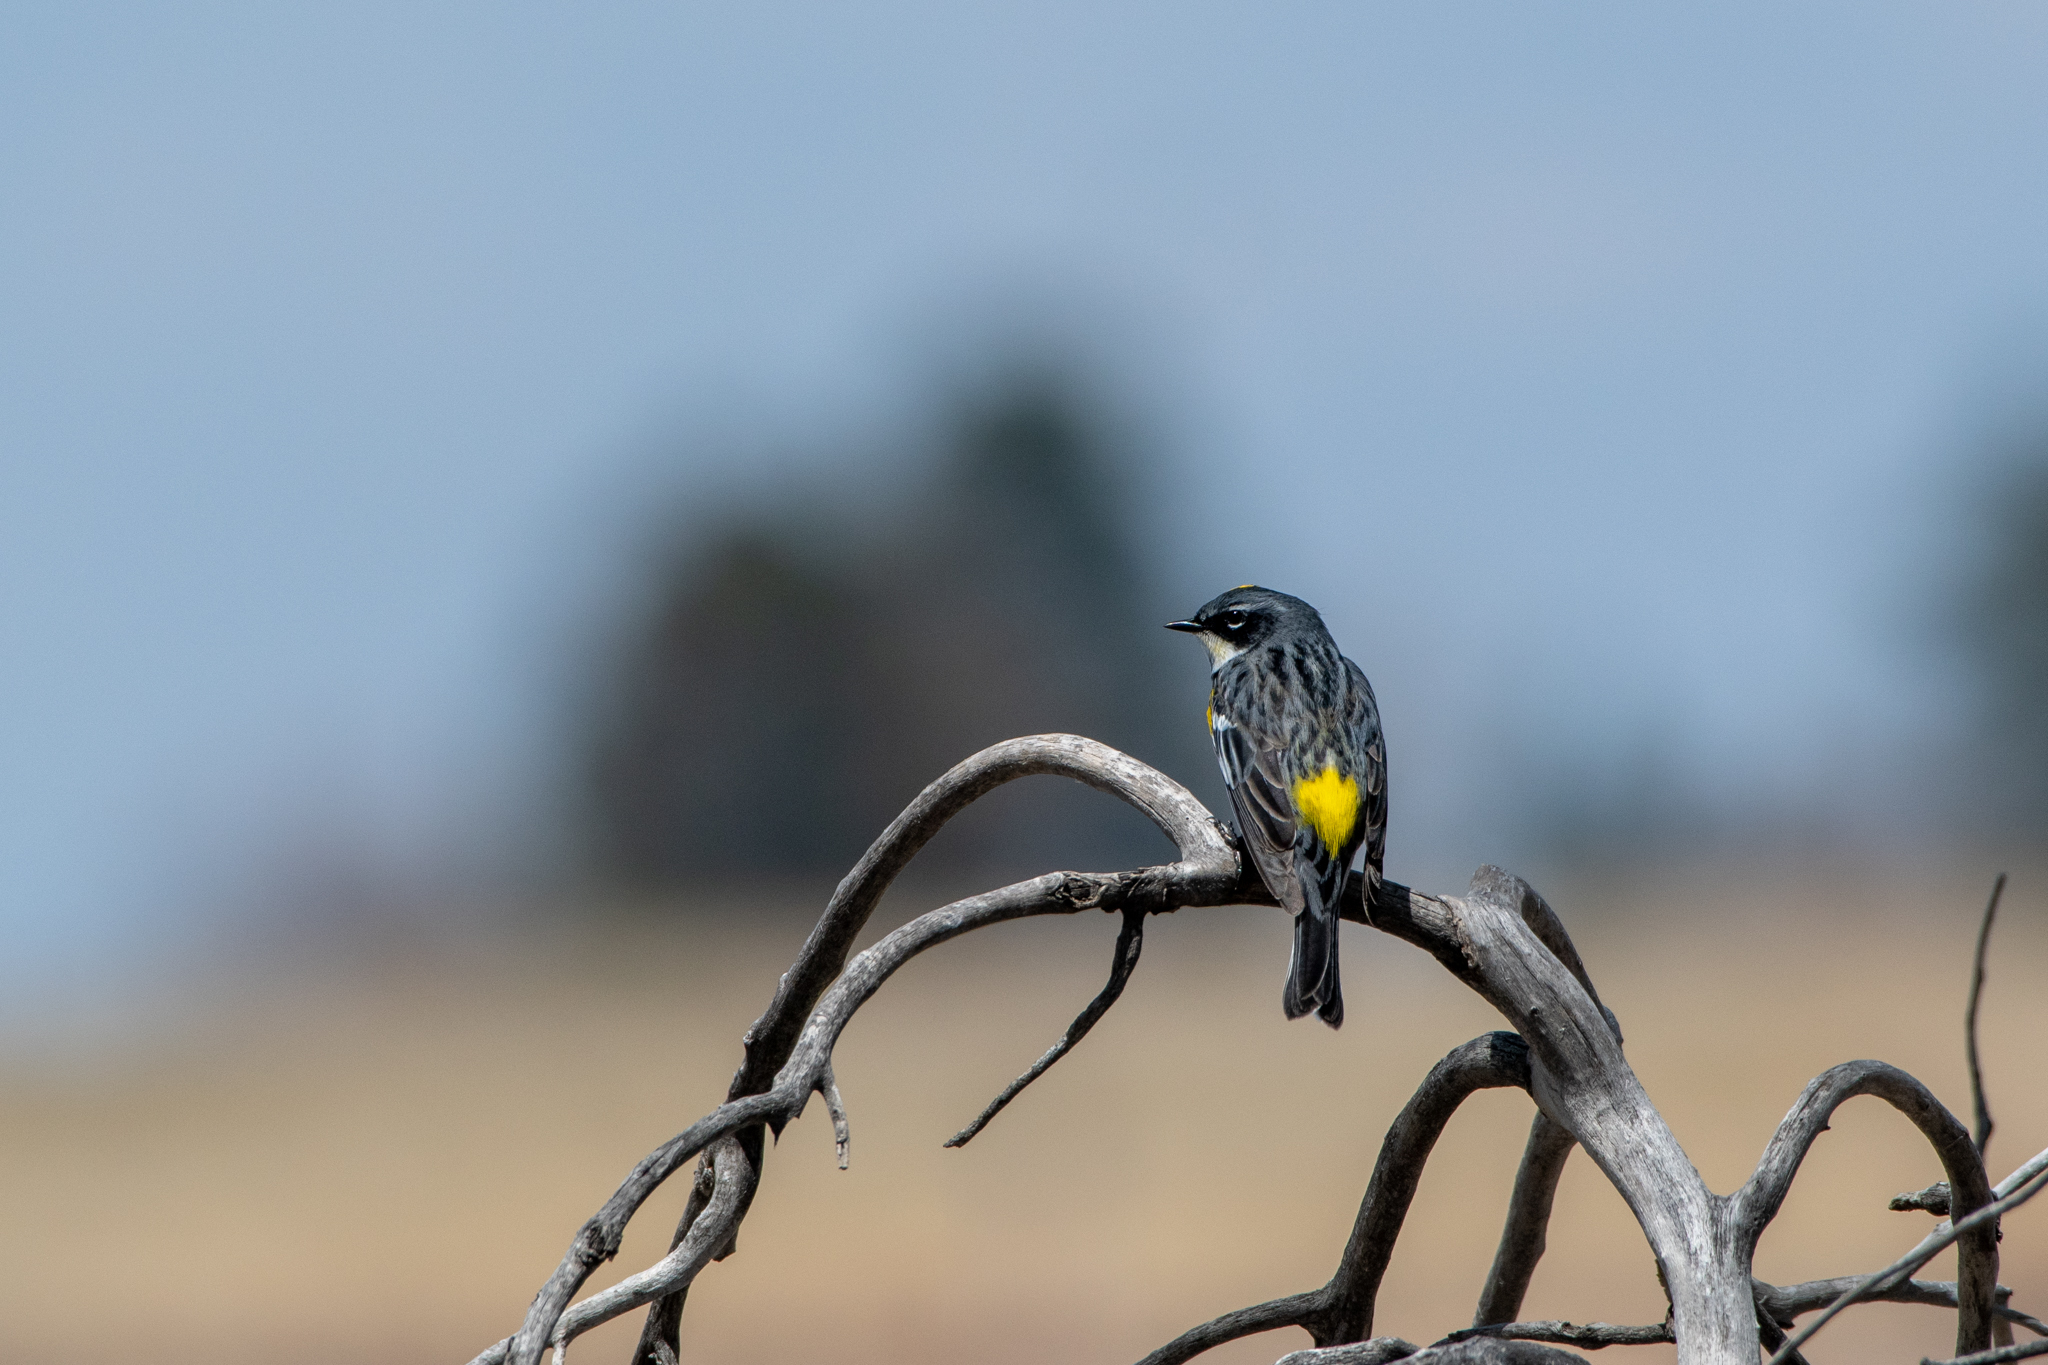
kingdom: Animalia
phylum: Chordata
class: Aves
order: Passeriformes
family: Parulidae
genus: Setophaga
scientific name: Setophaga coronata
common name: Myrtle warbler
